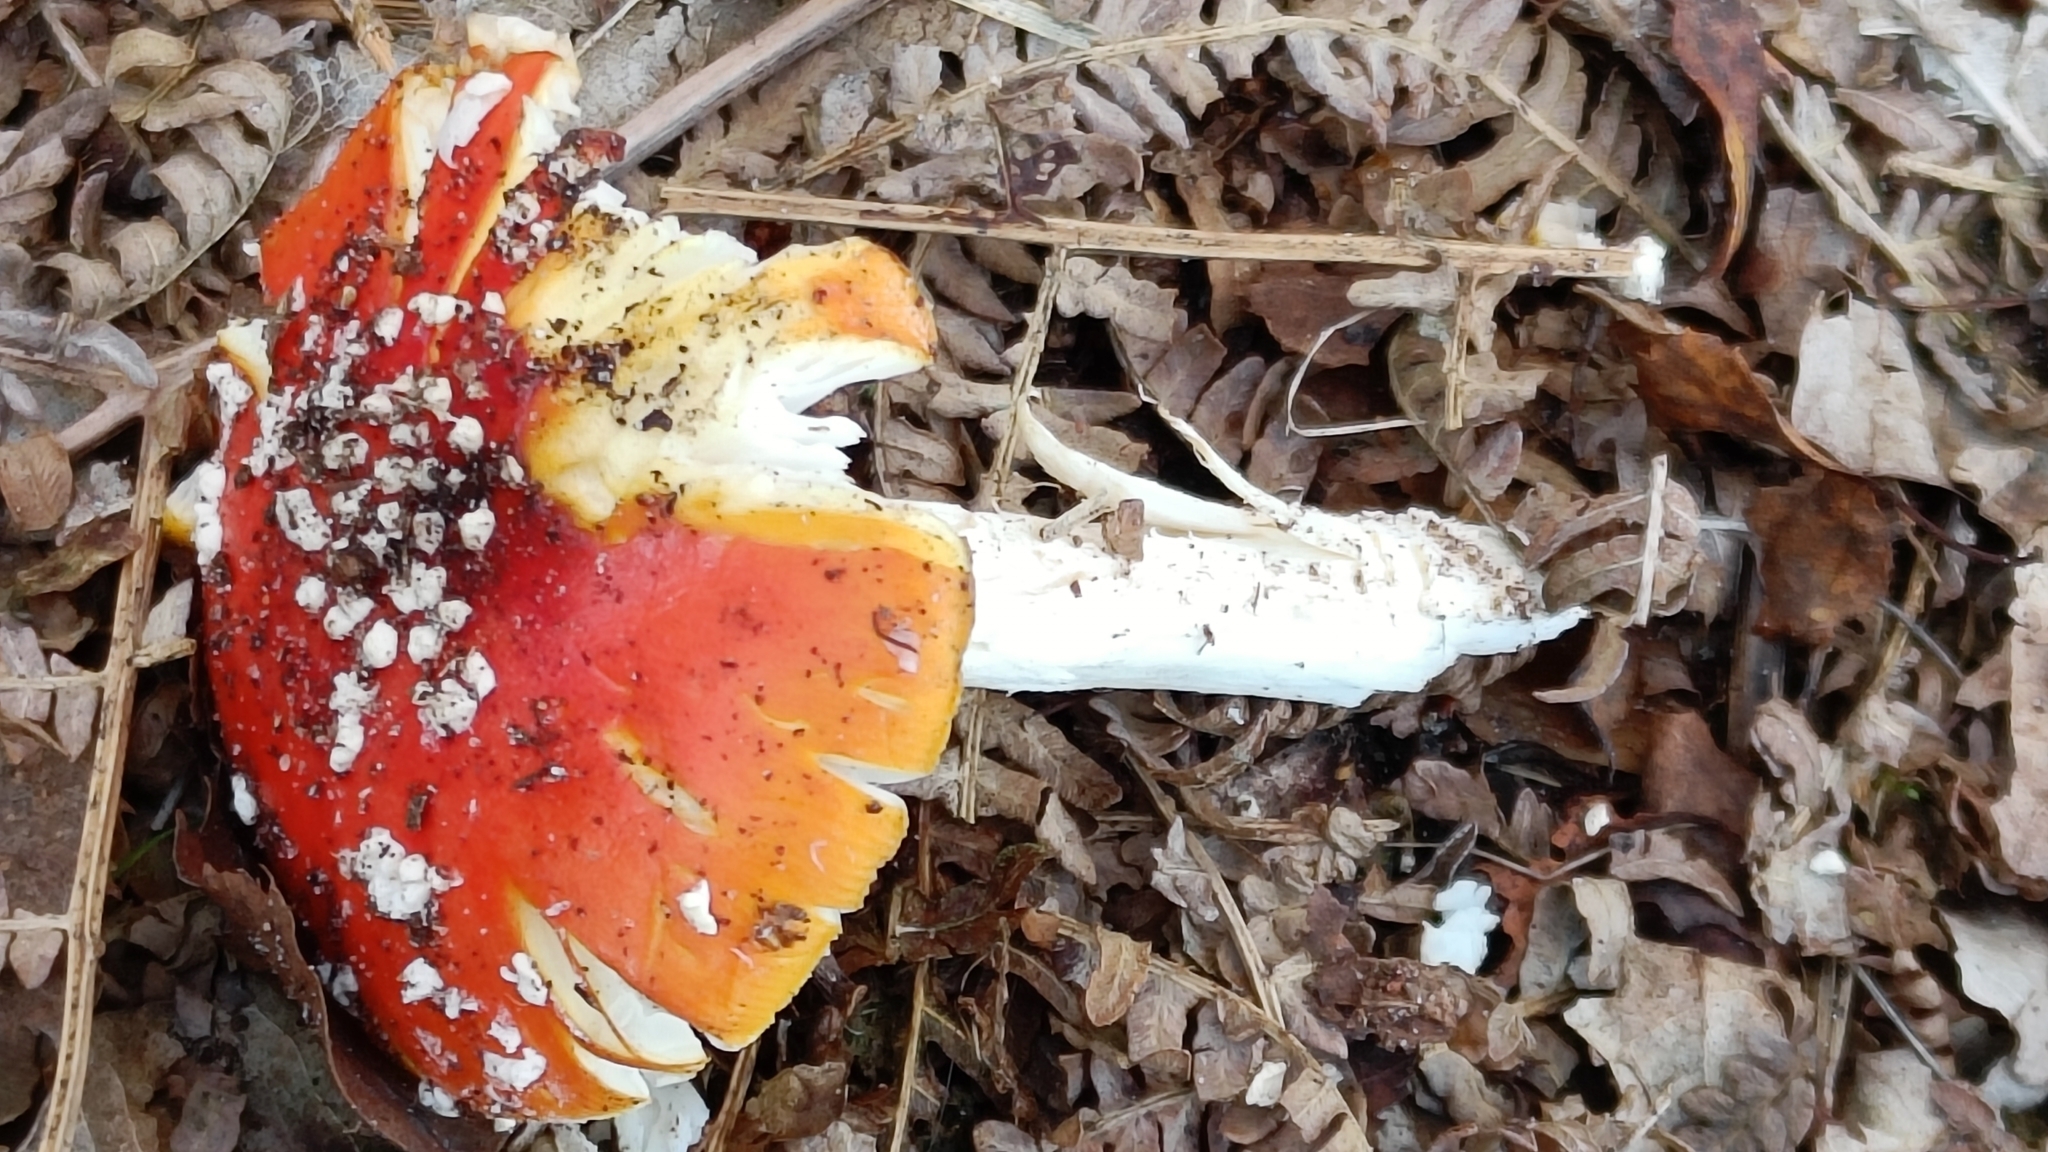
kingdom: Fungi
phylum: Basidiomycota
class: Agaricomycetes
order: Agaricales
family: Amanitaceae
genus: Amanita
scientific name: Amanita muscaria
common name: Fly agaric
